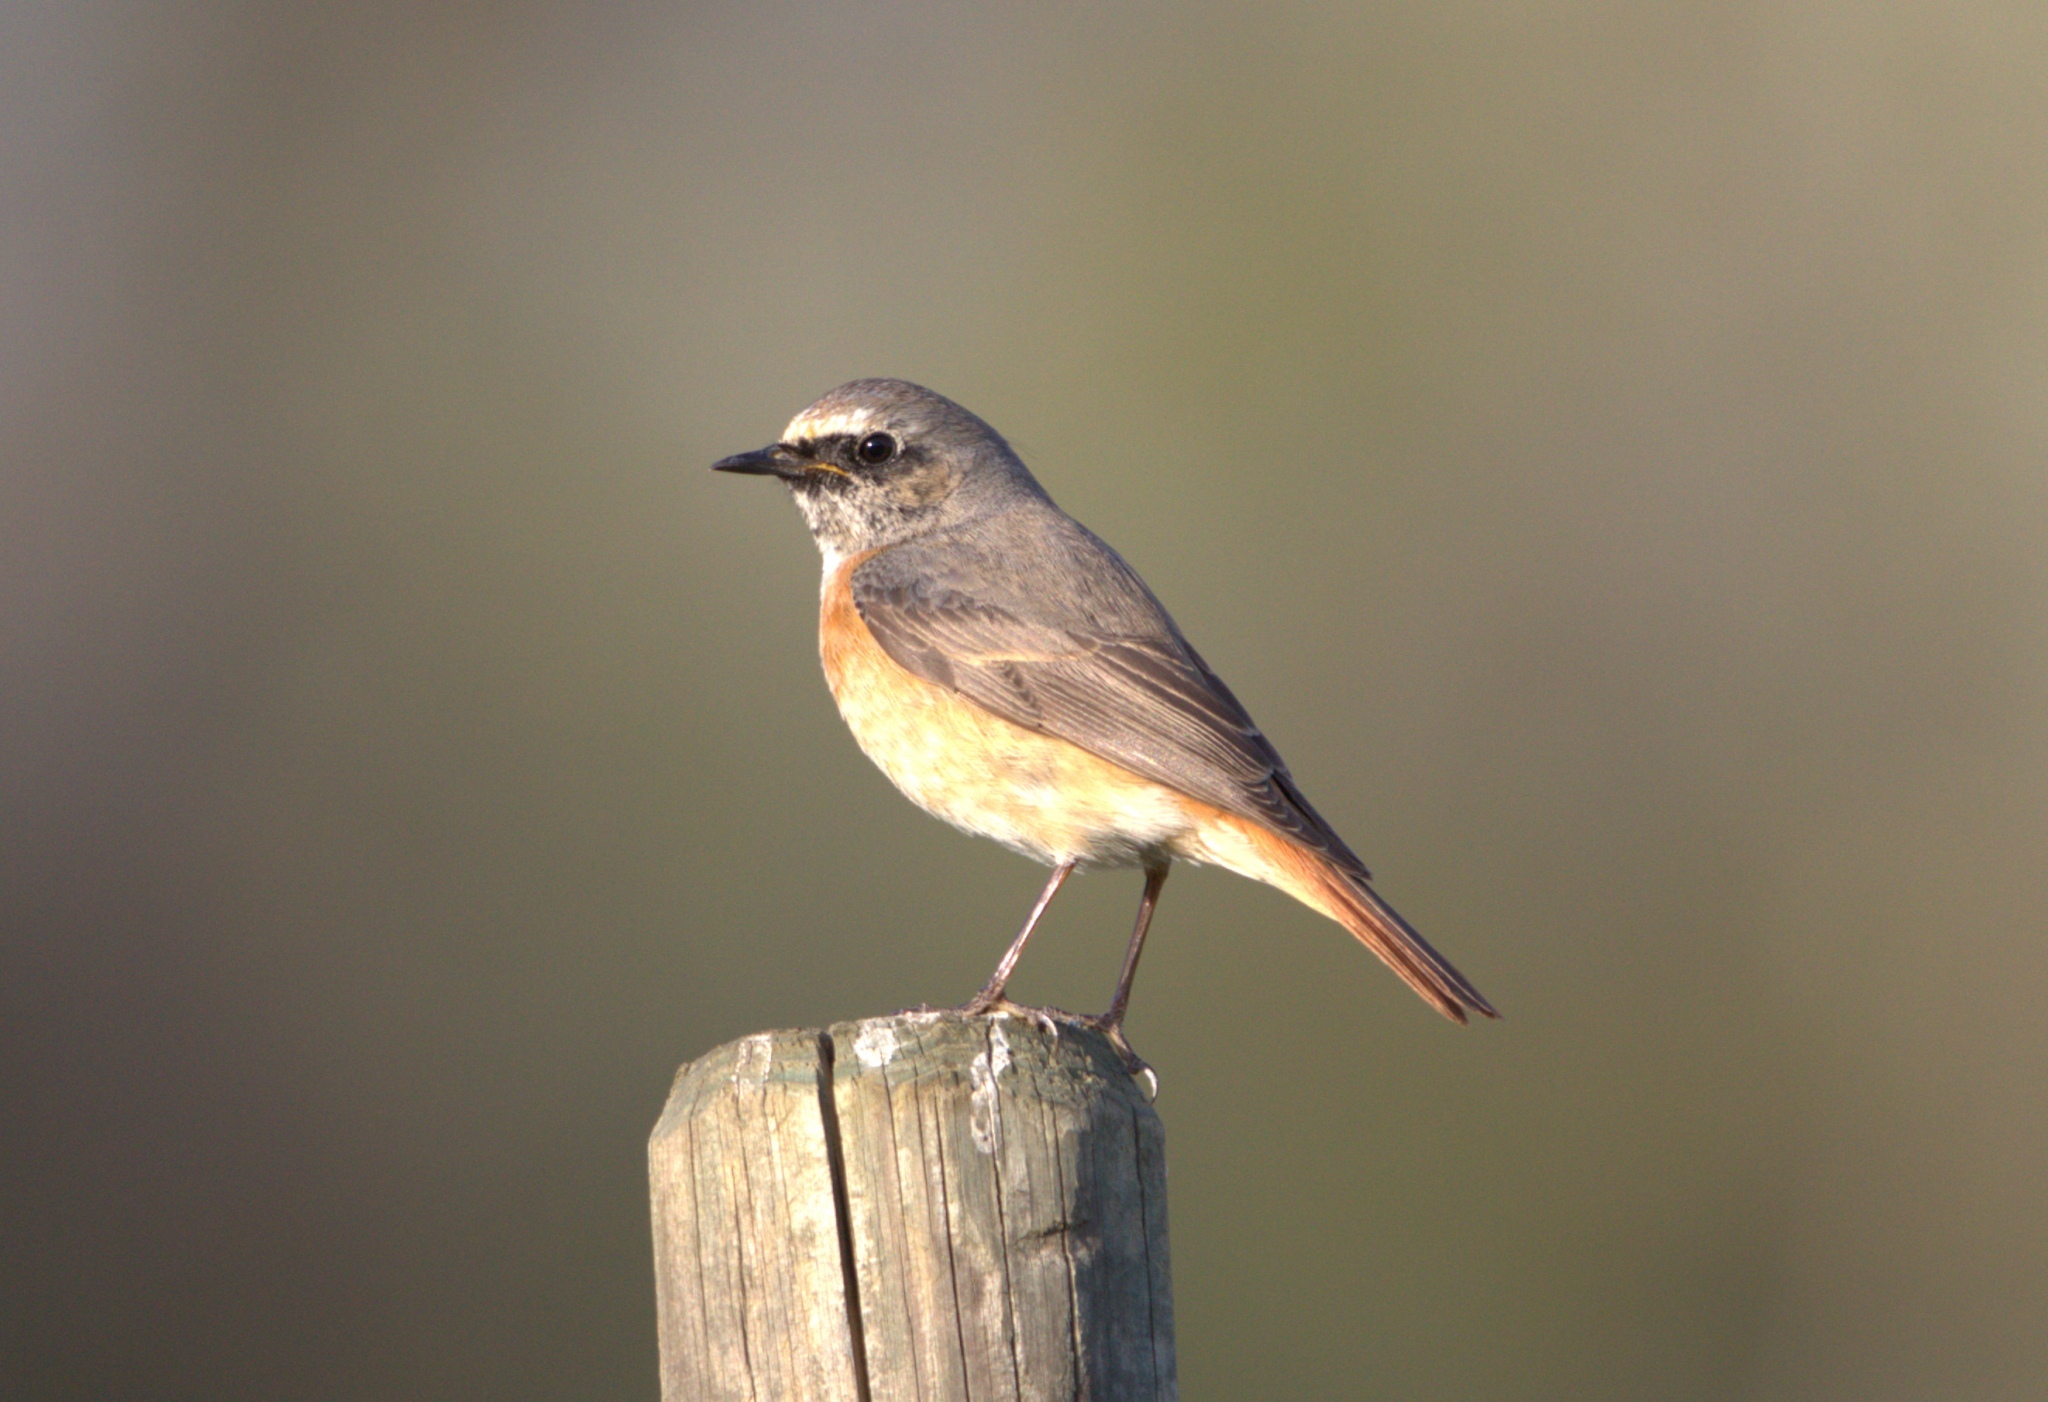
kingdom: Animalia
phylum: Chordata
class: Aves
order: Passeriformes
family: Muscicapidae
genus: Phoenicurus
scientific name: Phoenicurus phoenicurus
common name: Common redstart
